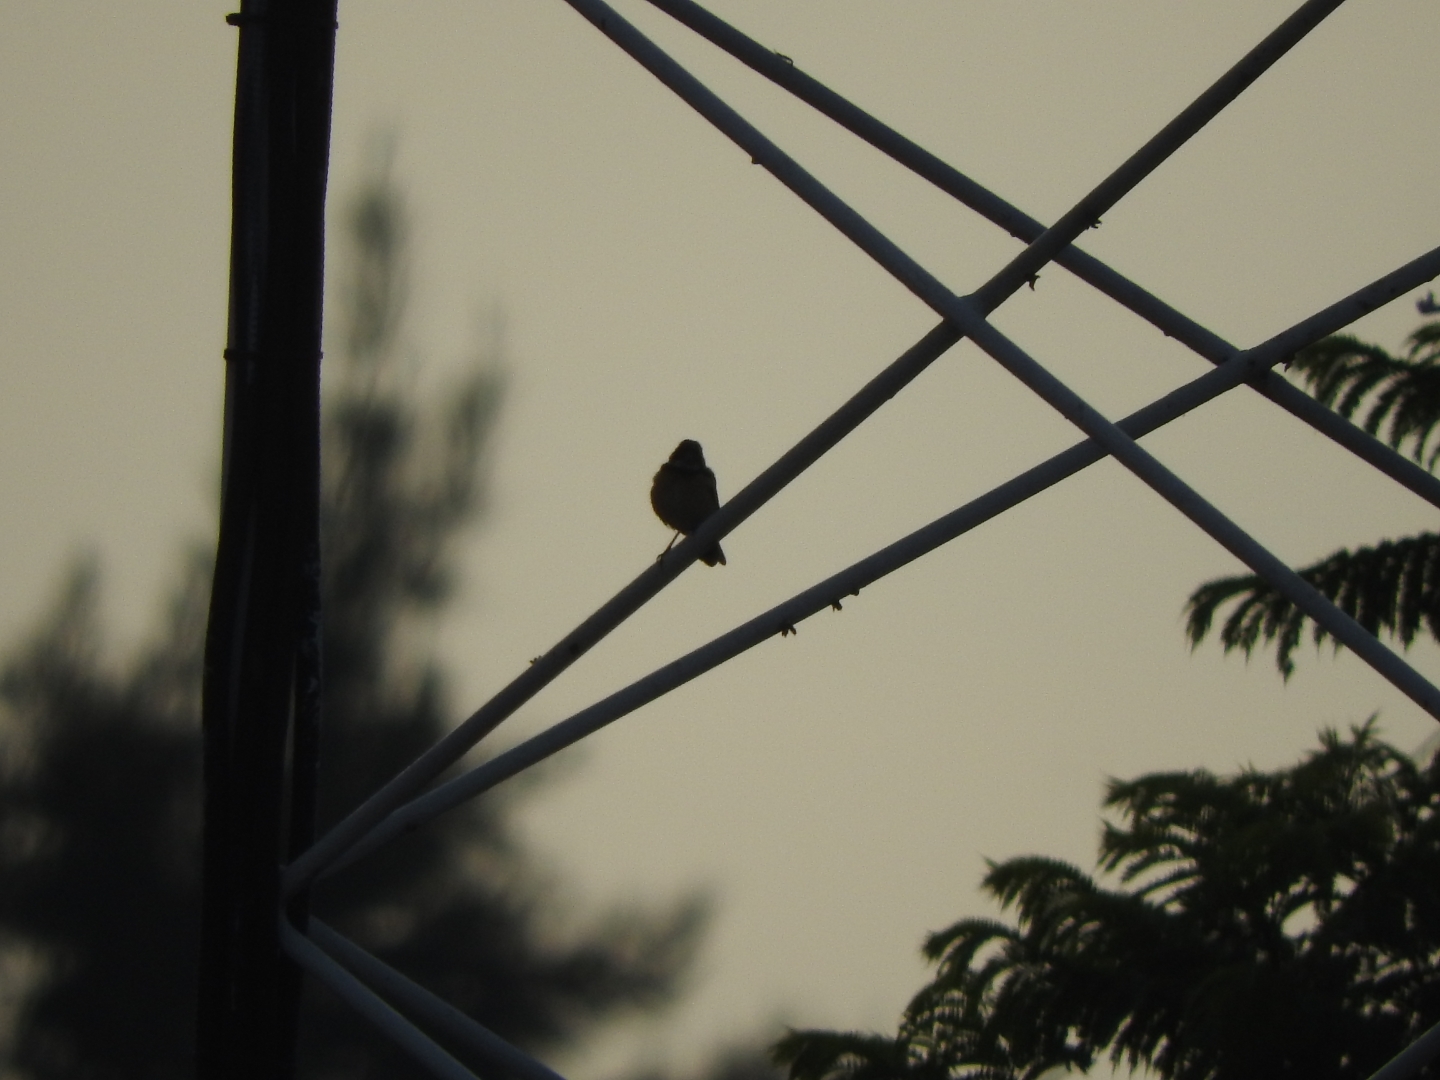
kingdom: Animalia
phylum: Chordata
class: Aves
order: Passeriformes
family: Thraupidae
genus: Sporophila
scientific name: Sporophila torqueola
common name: White-collared seedeater
